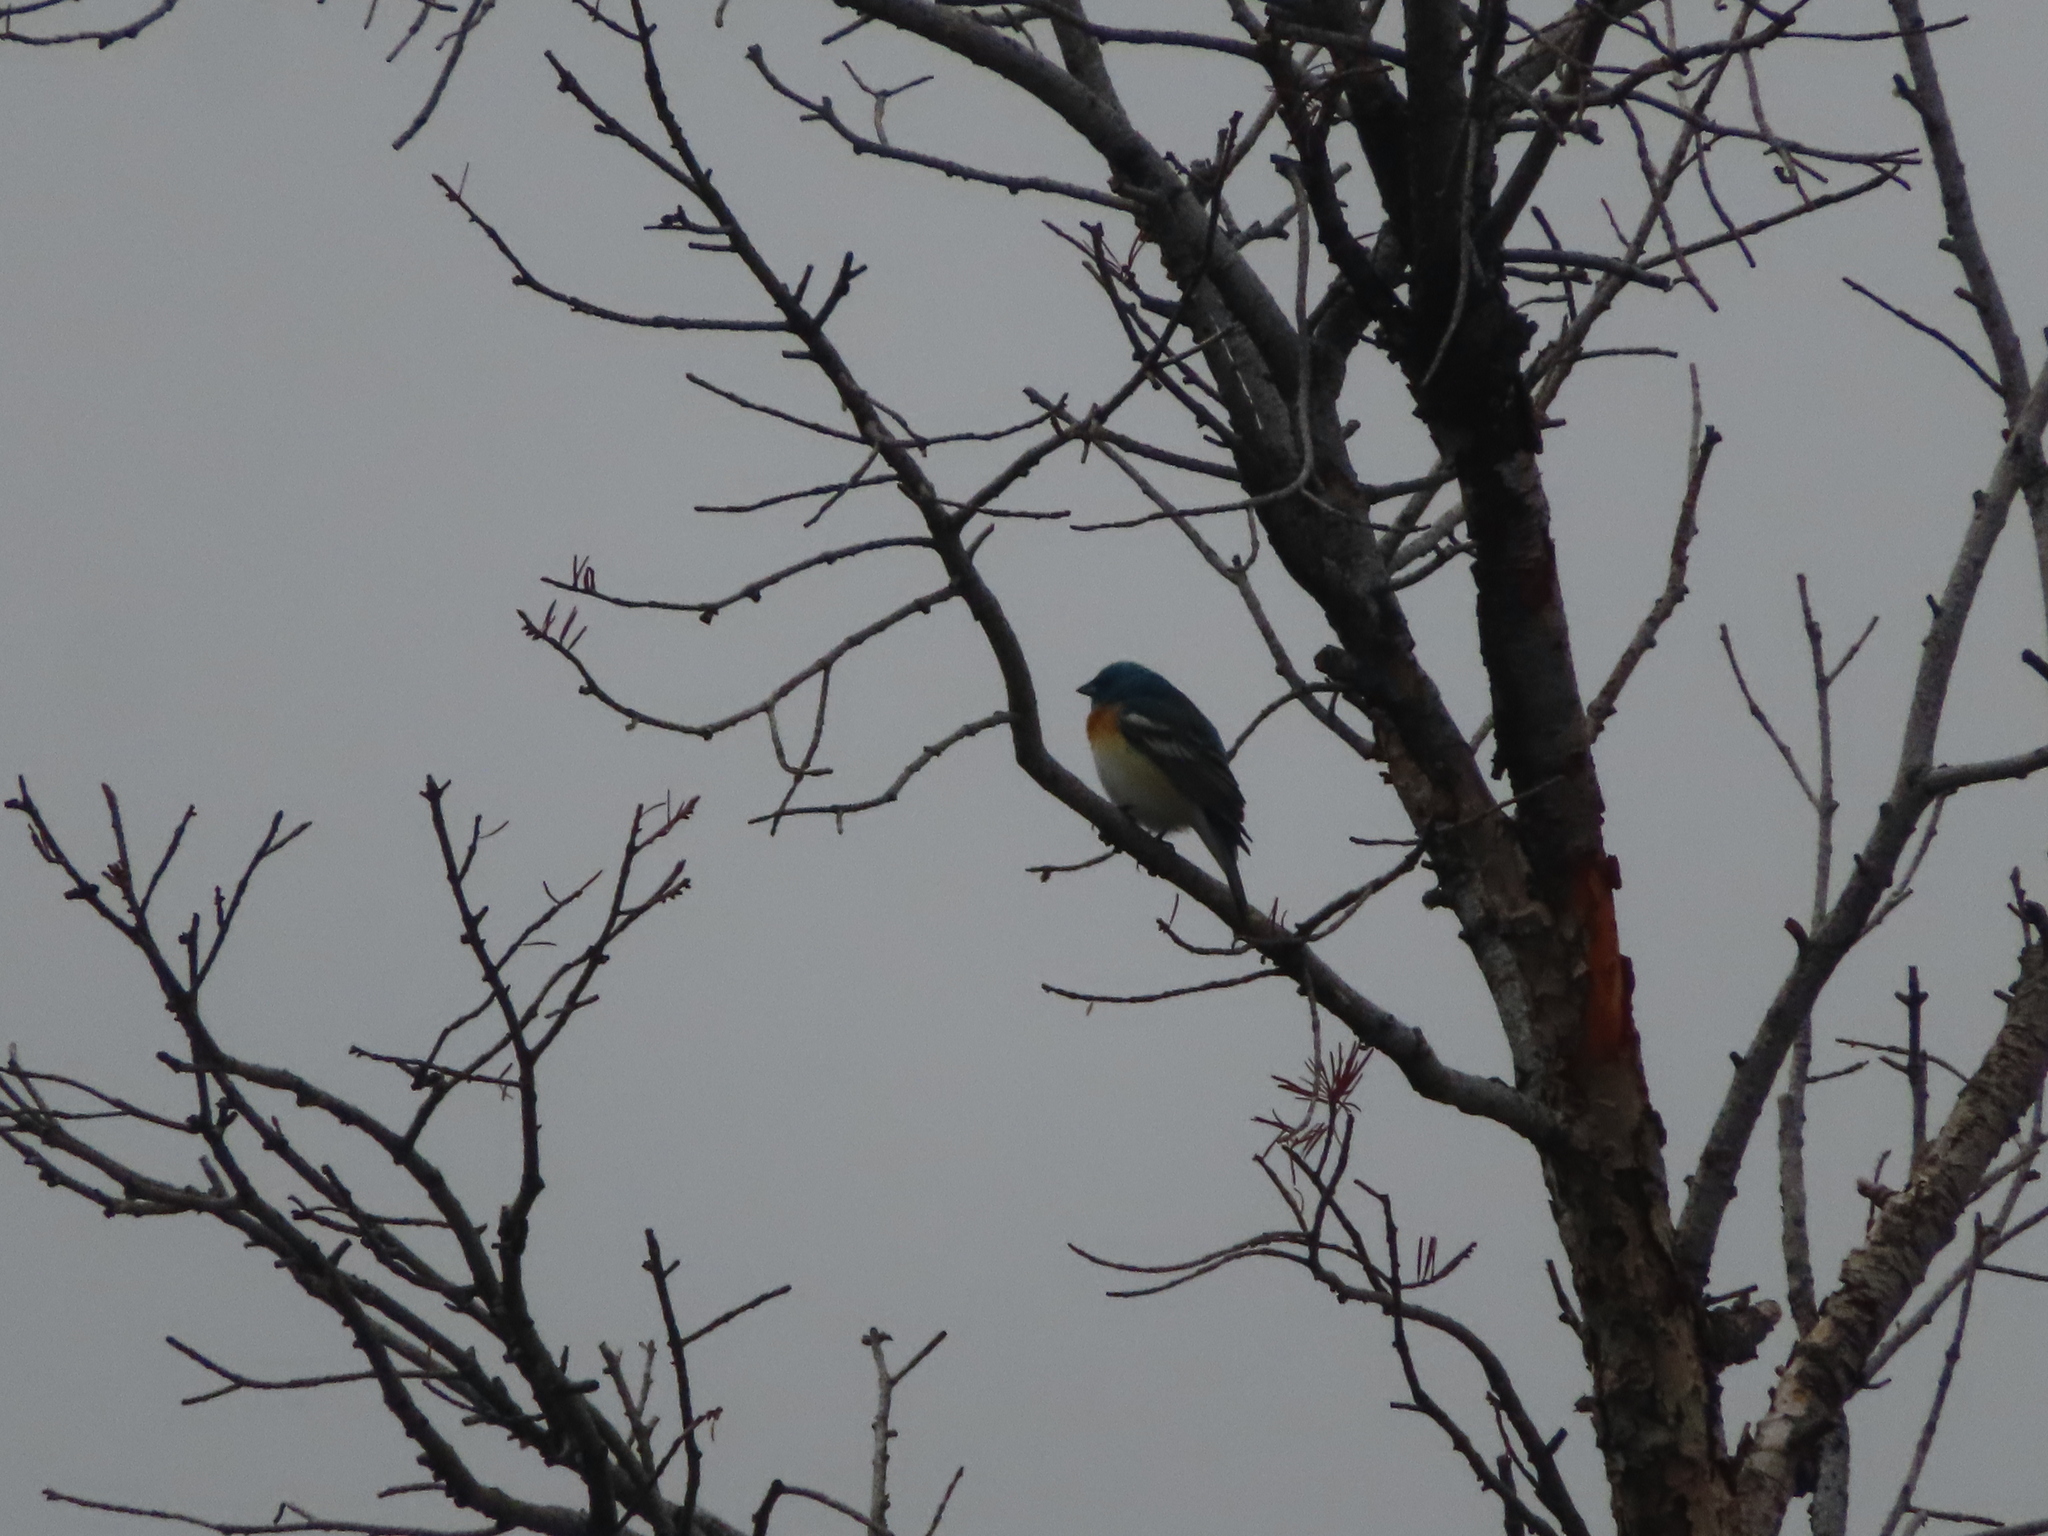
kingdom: Animalia
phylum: Chordata
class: Aves
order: Passeriformes
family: Cardinalidae
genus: Passerina
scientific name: Passerina amoena
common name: Lazuli bunting
